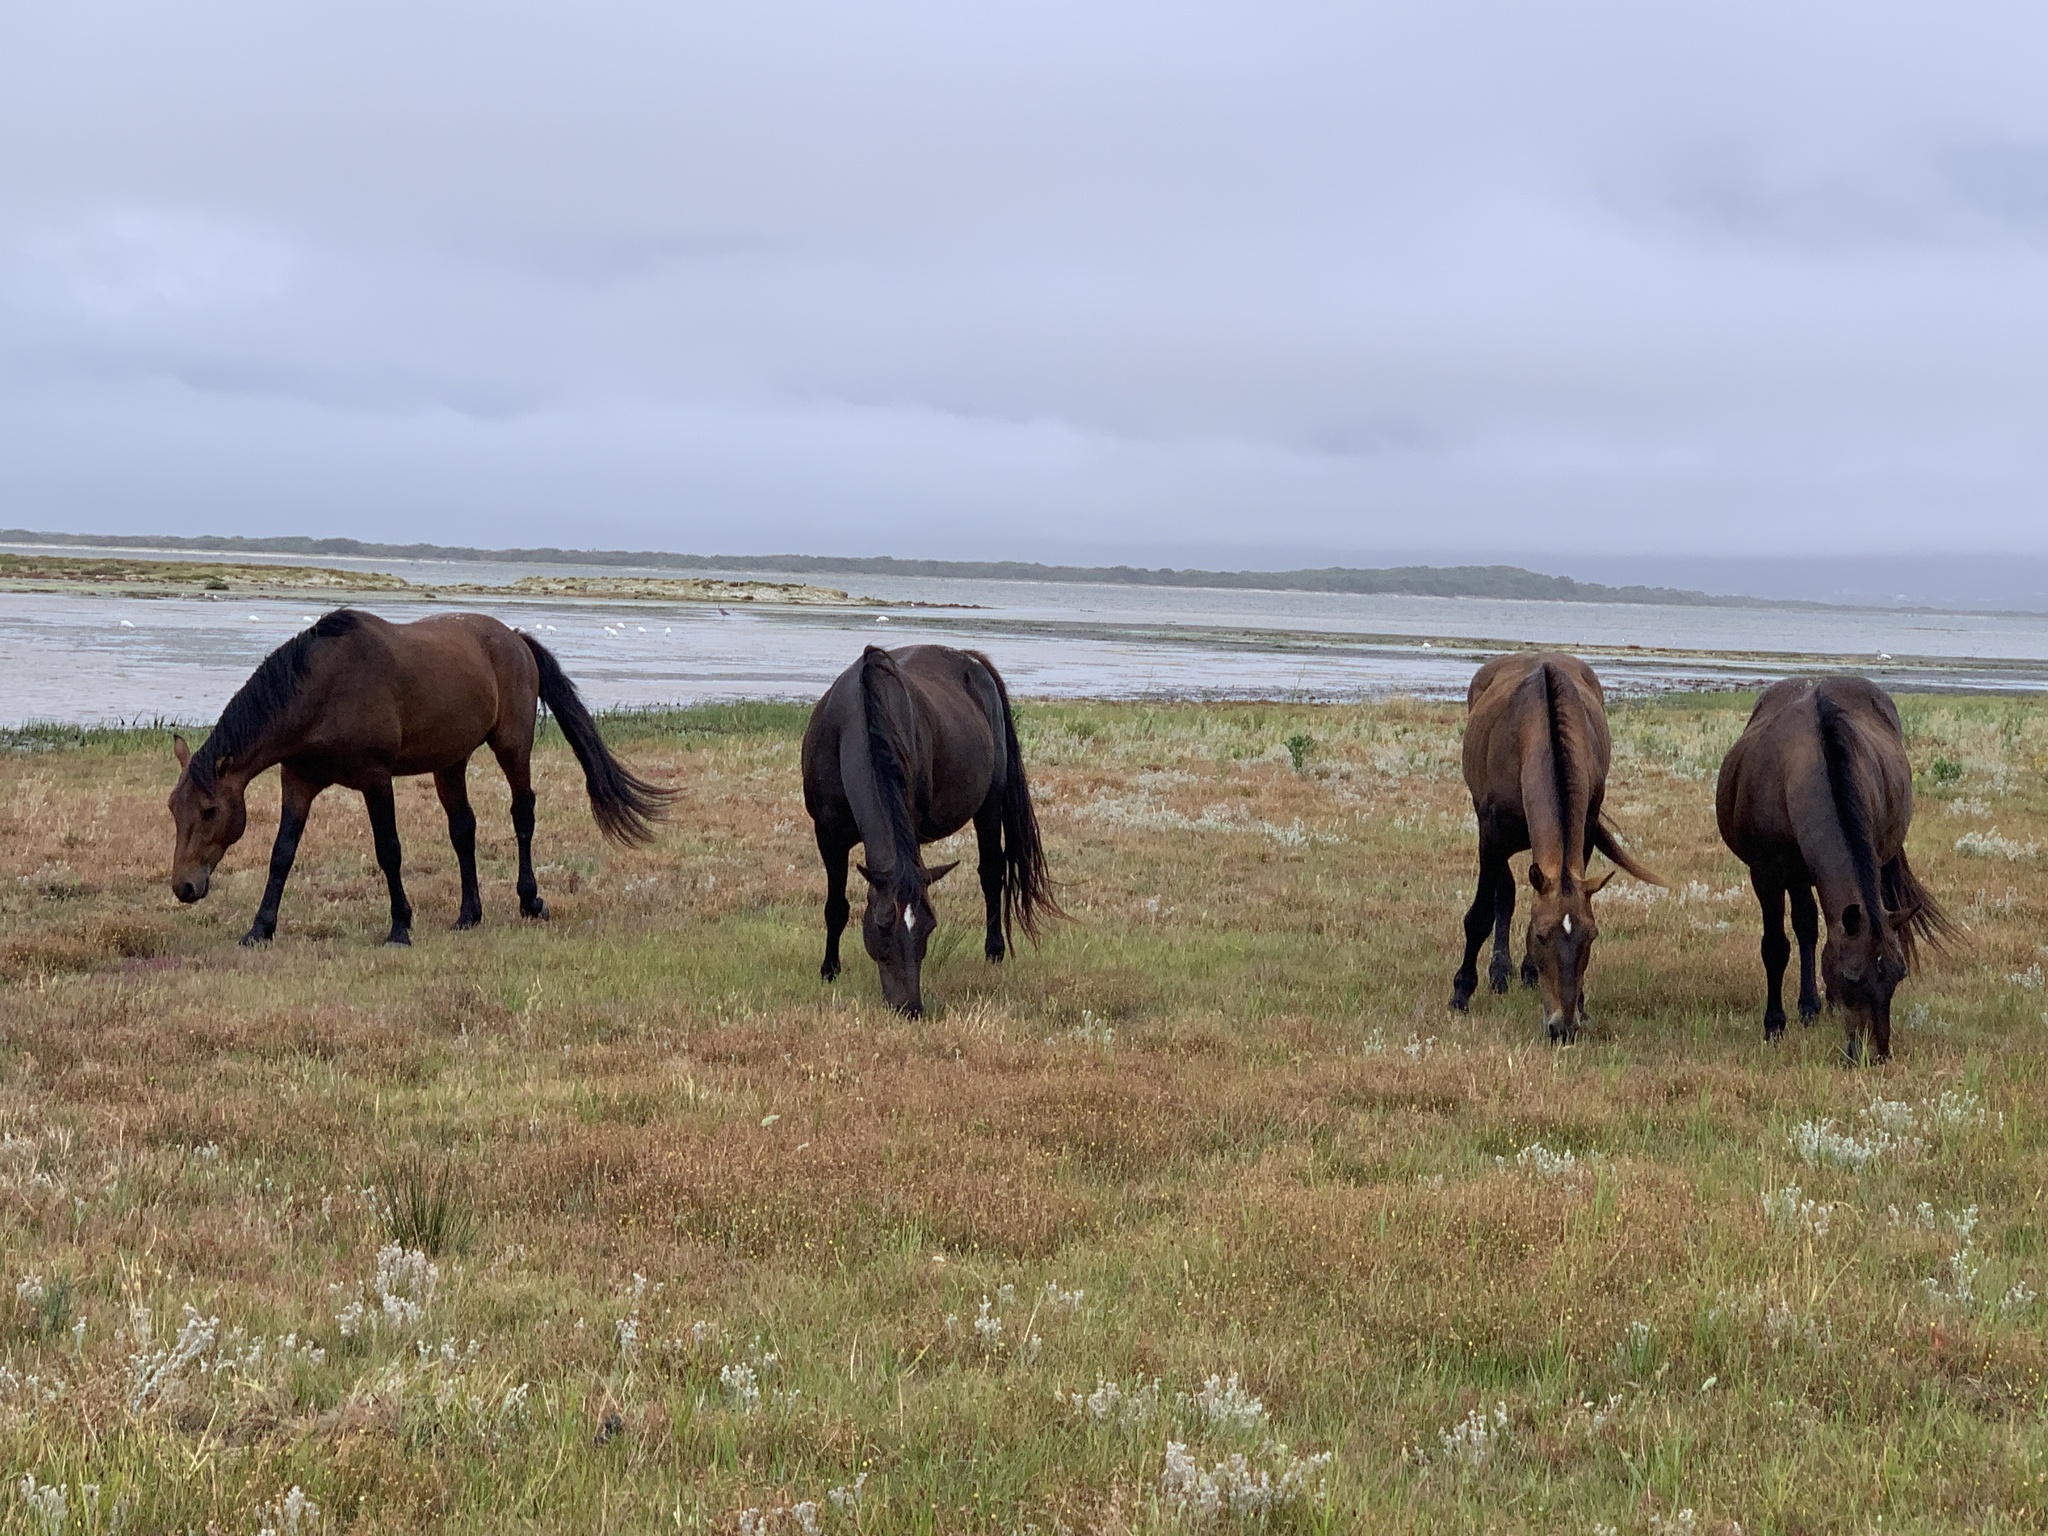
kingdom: Animalia
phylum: Chordata
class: Mammalia
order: Perissodactyla
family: Equidae
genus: Equus
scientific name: Equus caballus
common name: Horse
